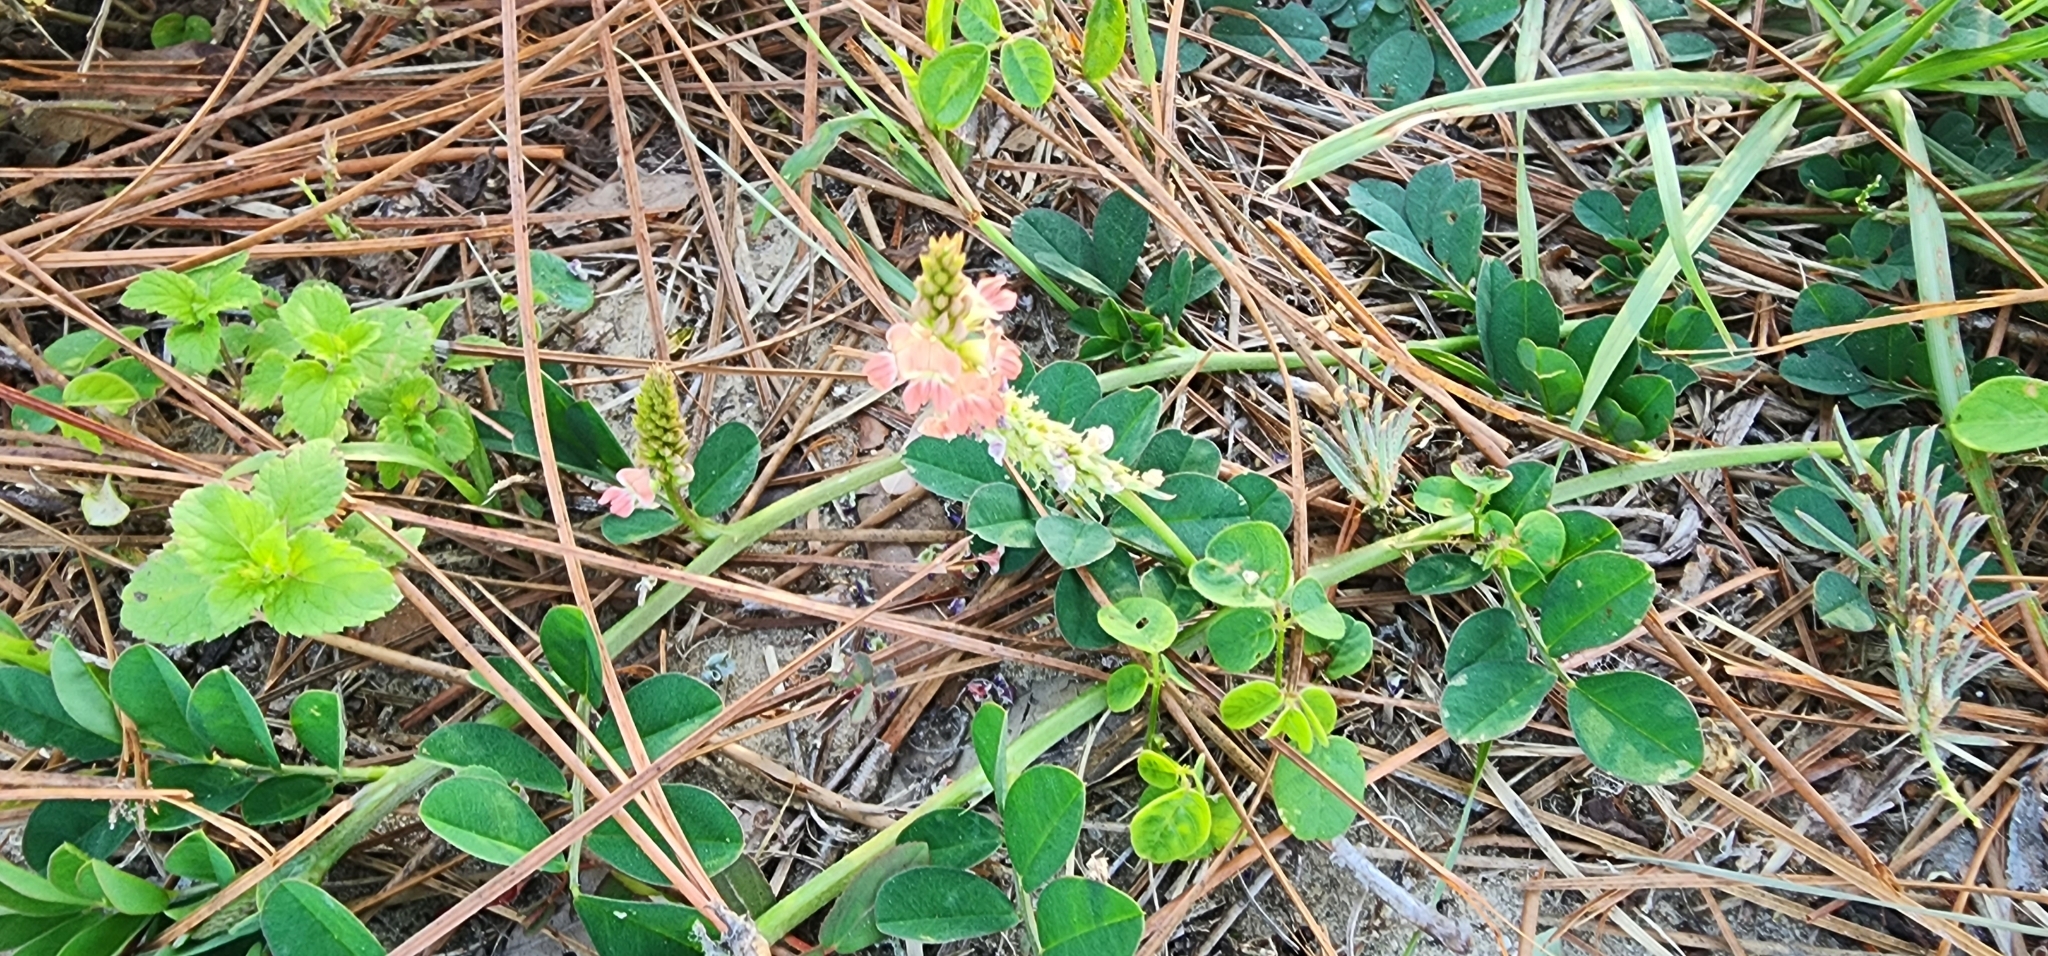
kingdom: Plantae
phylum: Tracheophyta
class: Magnoliopsida
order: Fabales
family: Fabaceae
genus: Indigofera
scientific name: Indigofera spicata
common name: Creeping indigo
